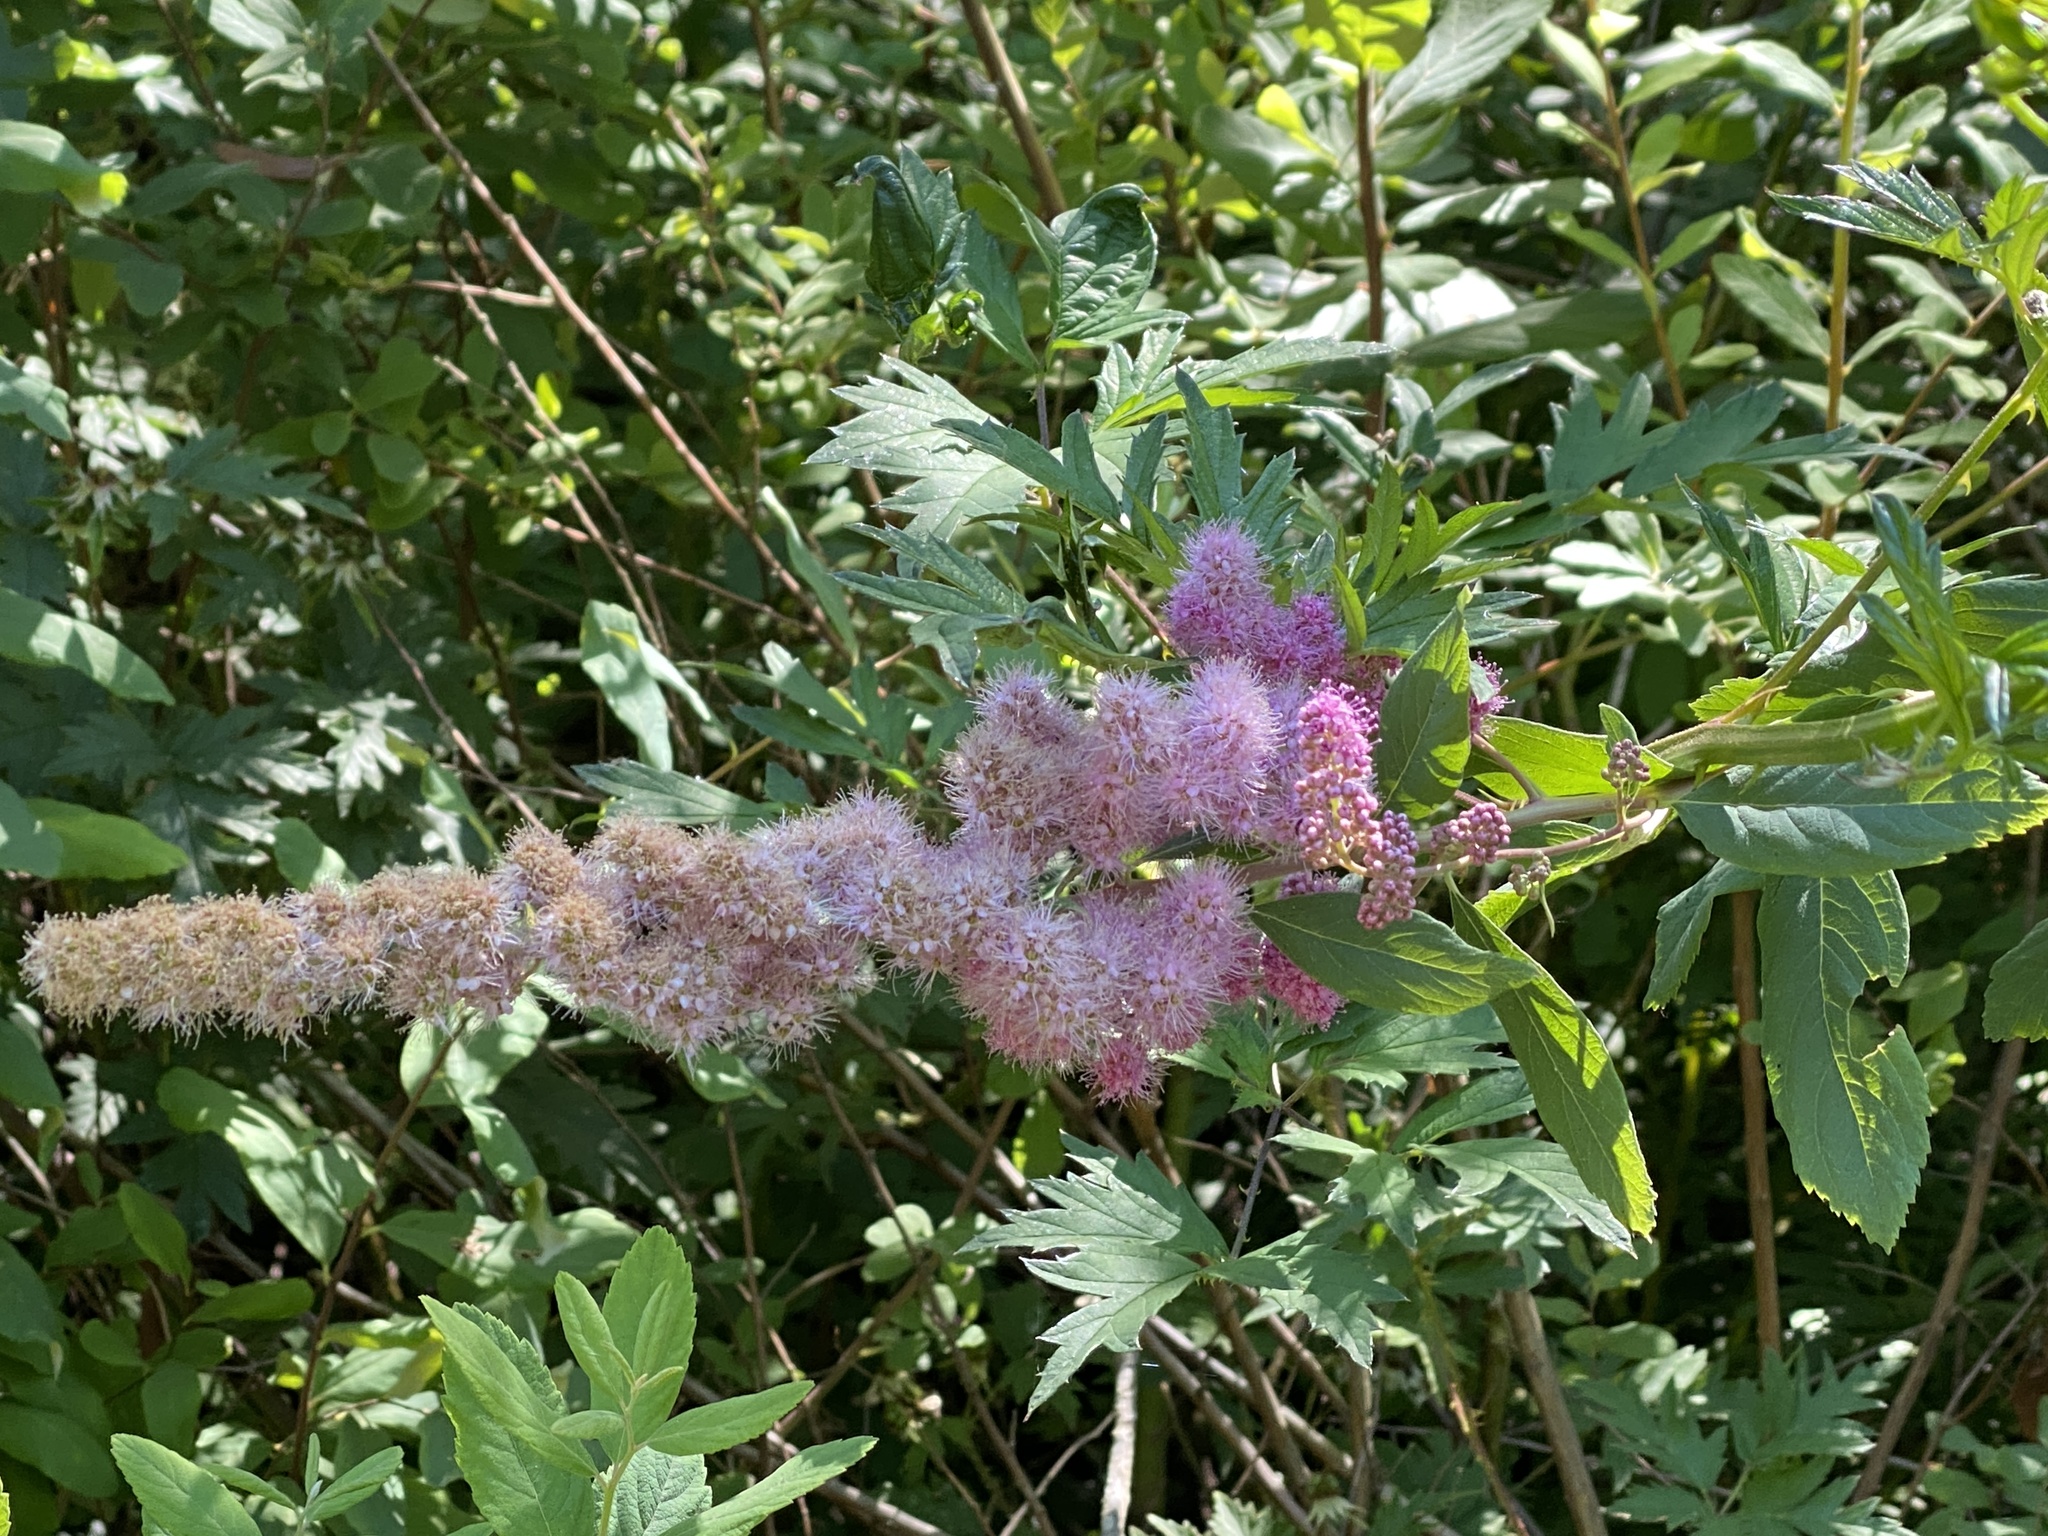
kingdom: Plantae
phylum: Tracheophyta
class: Magnoliopsida
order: Rosales
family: Rosaceae
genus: Spiraea
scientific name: Spiraea douglasii
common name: Steeplebush
